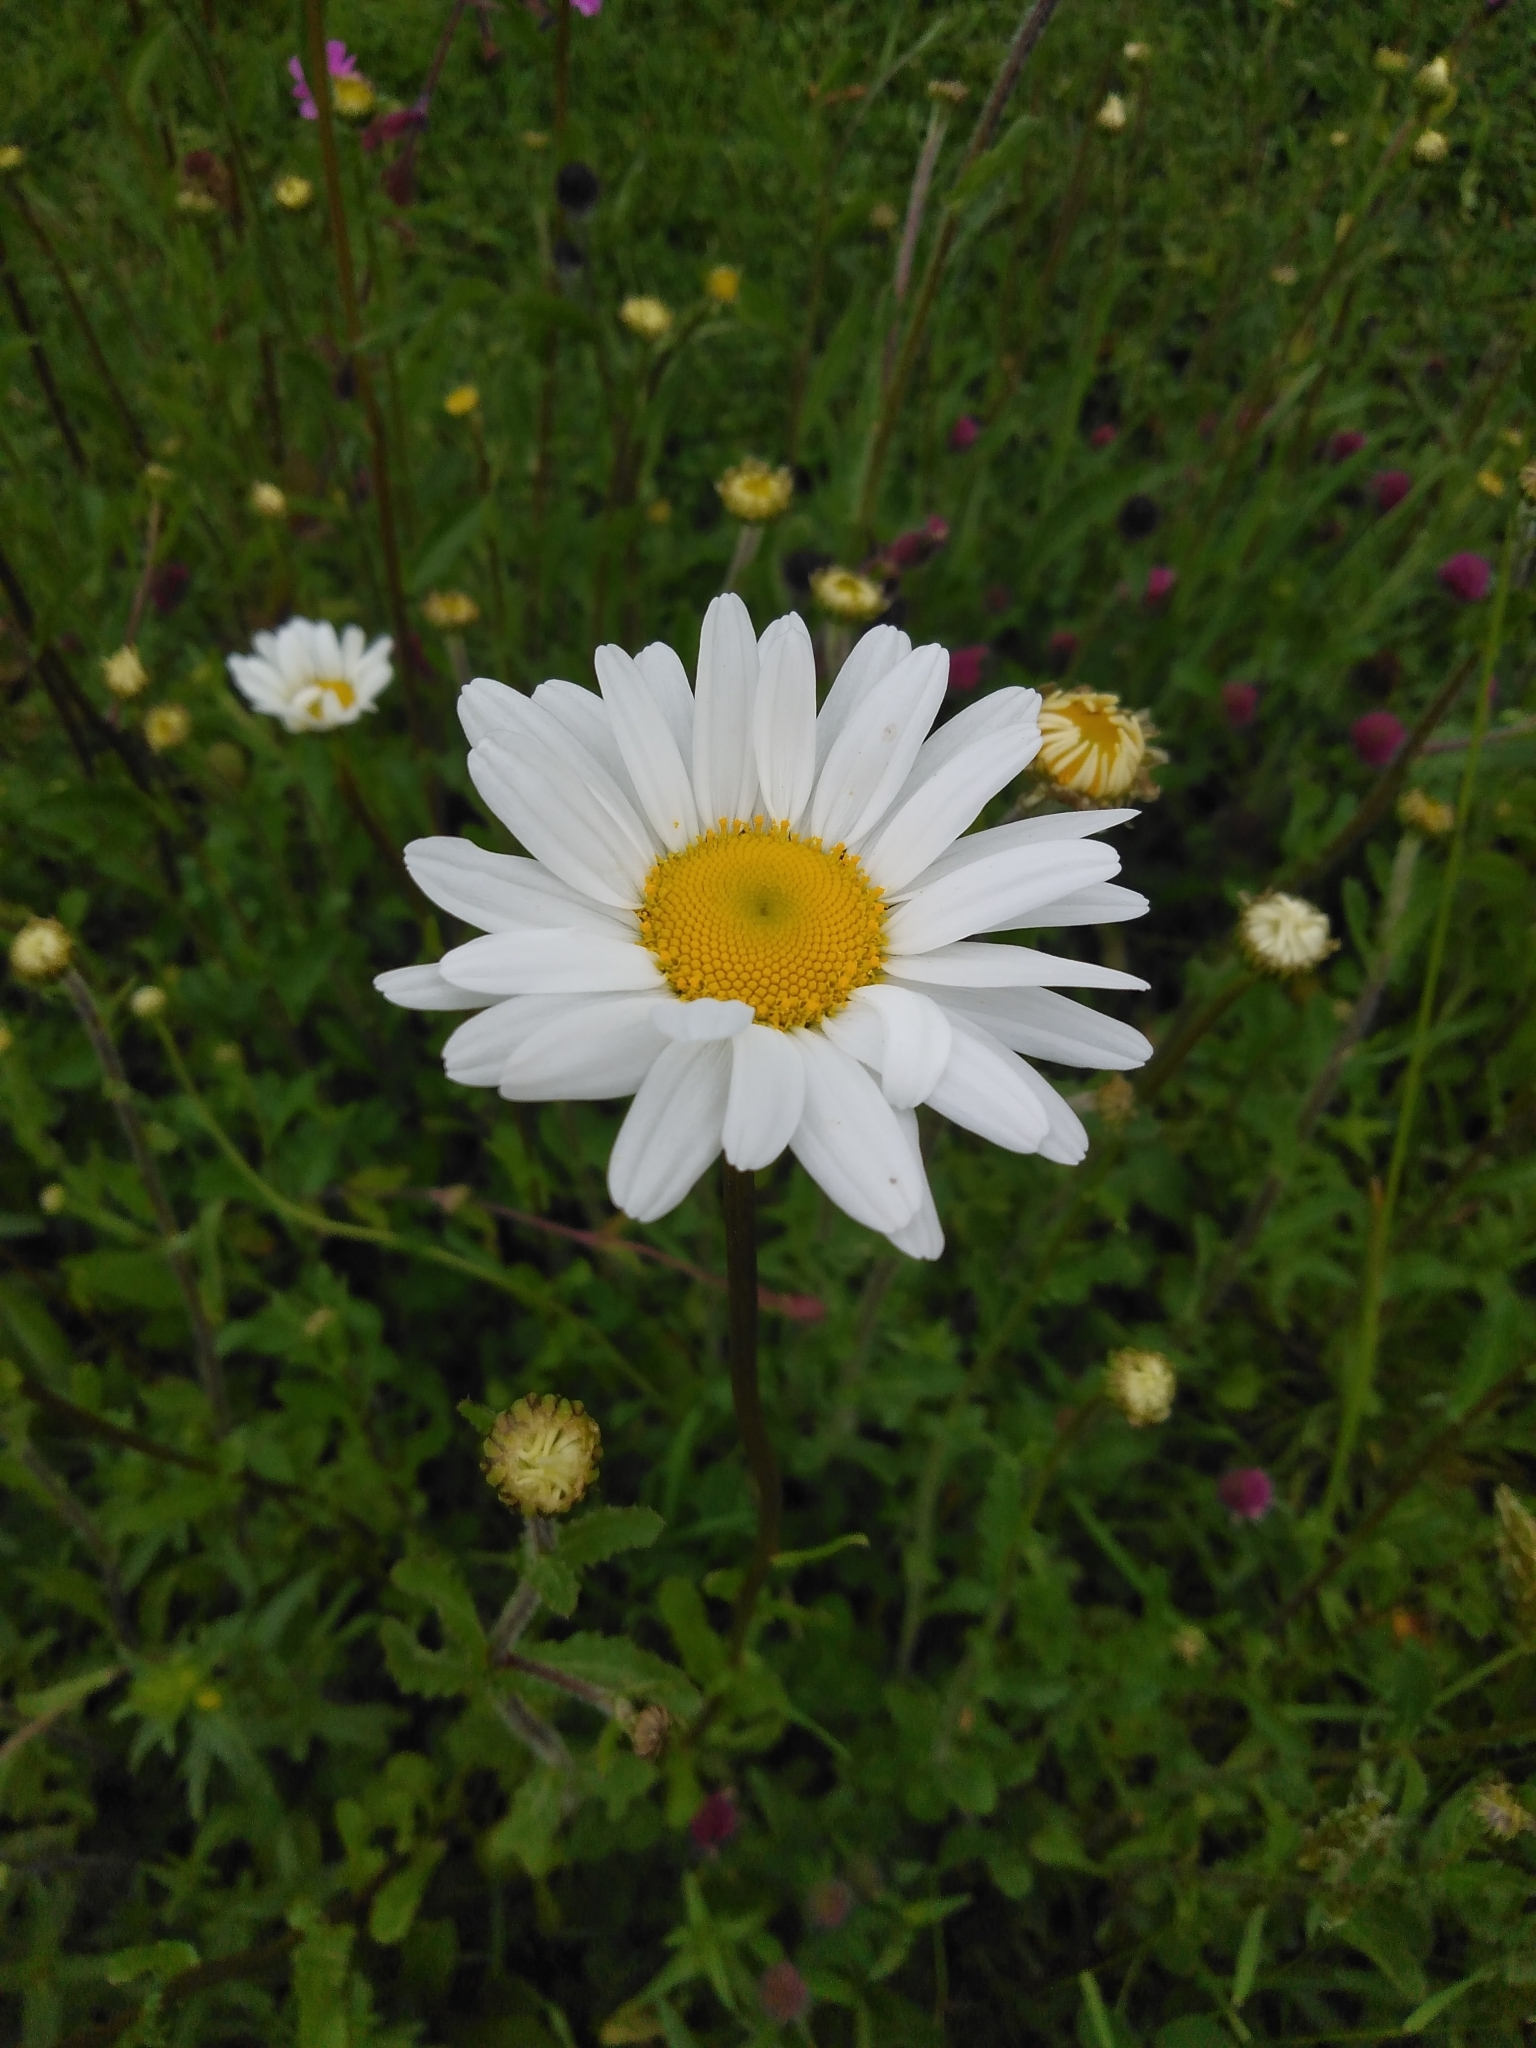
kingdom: Plantae
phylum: Tracheophyta
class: Magnoliopsida
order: Asterales
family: Asteraceae
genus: Leucanthemum
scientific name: Leucanthemum vulgare
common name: Oxeye daisy
